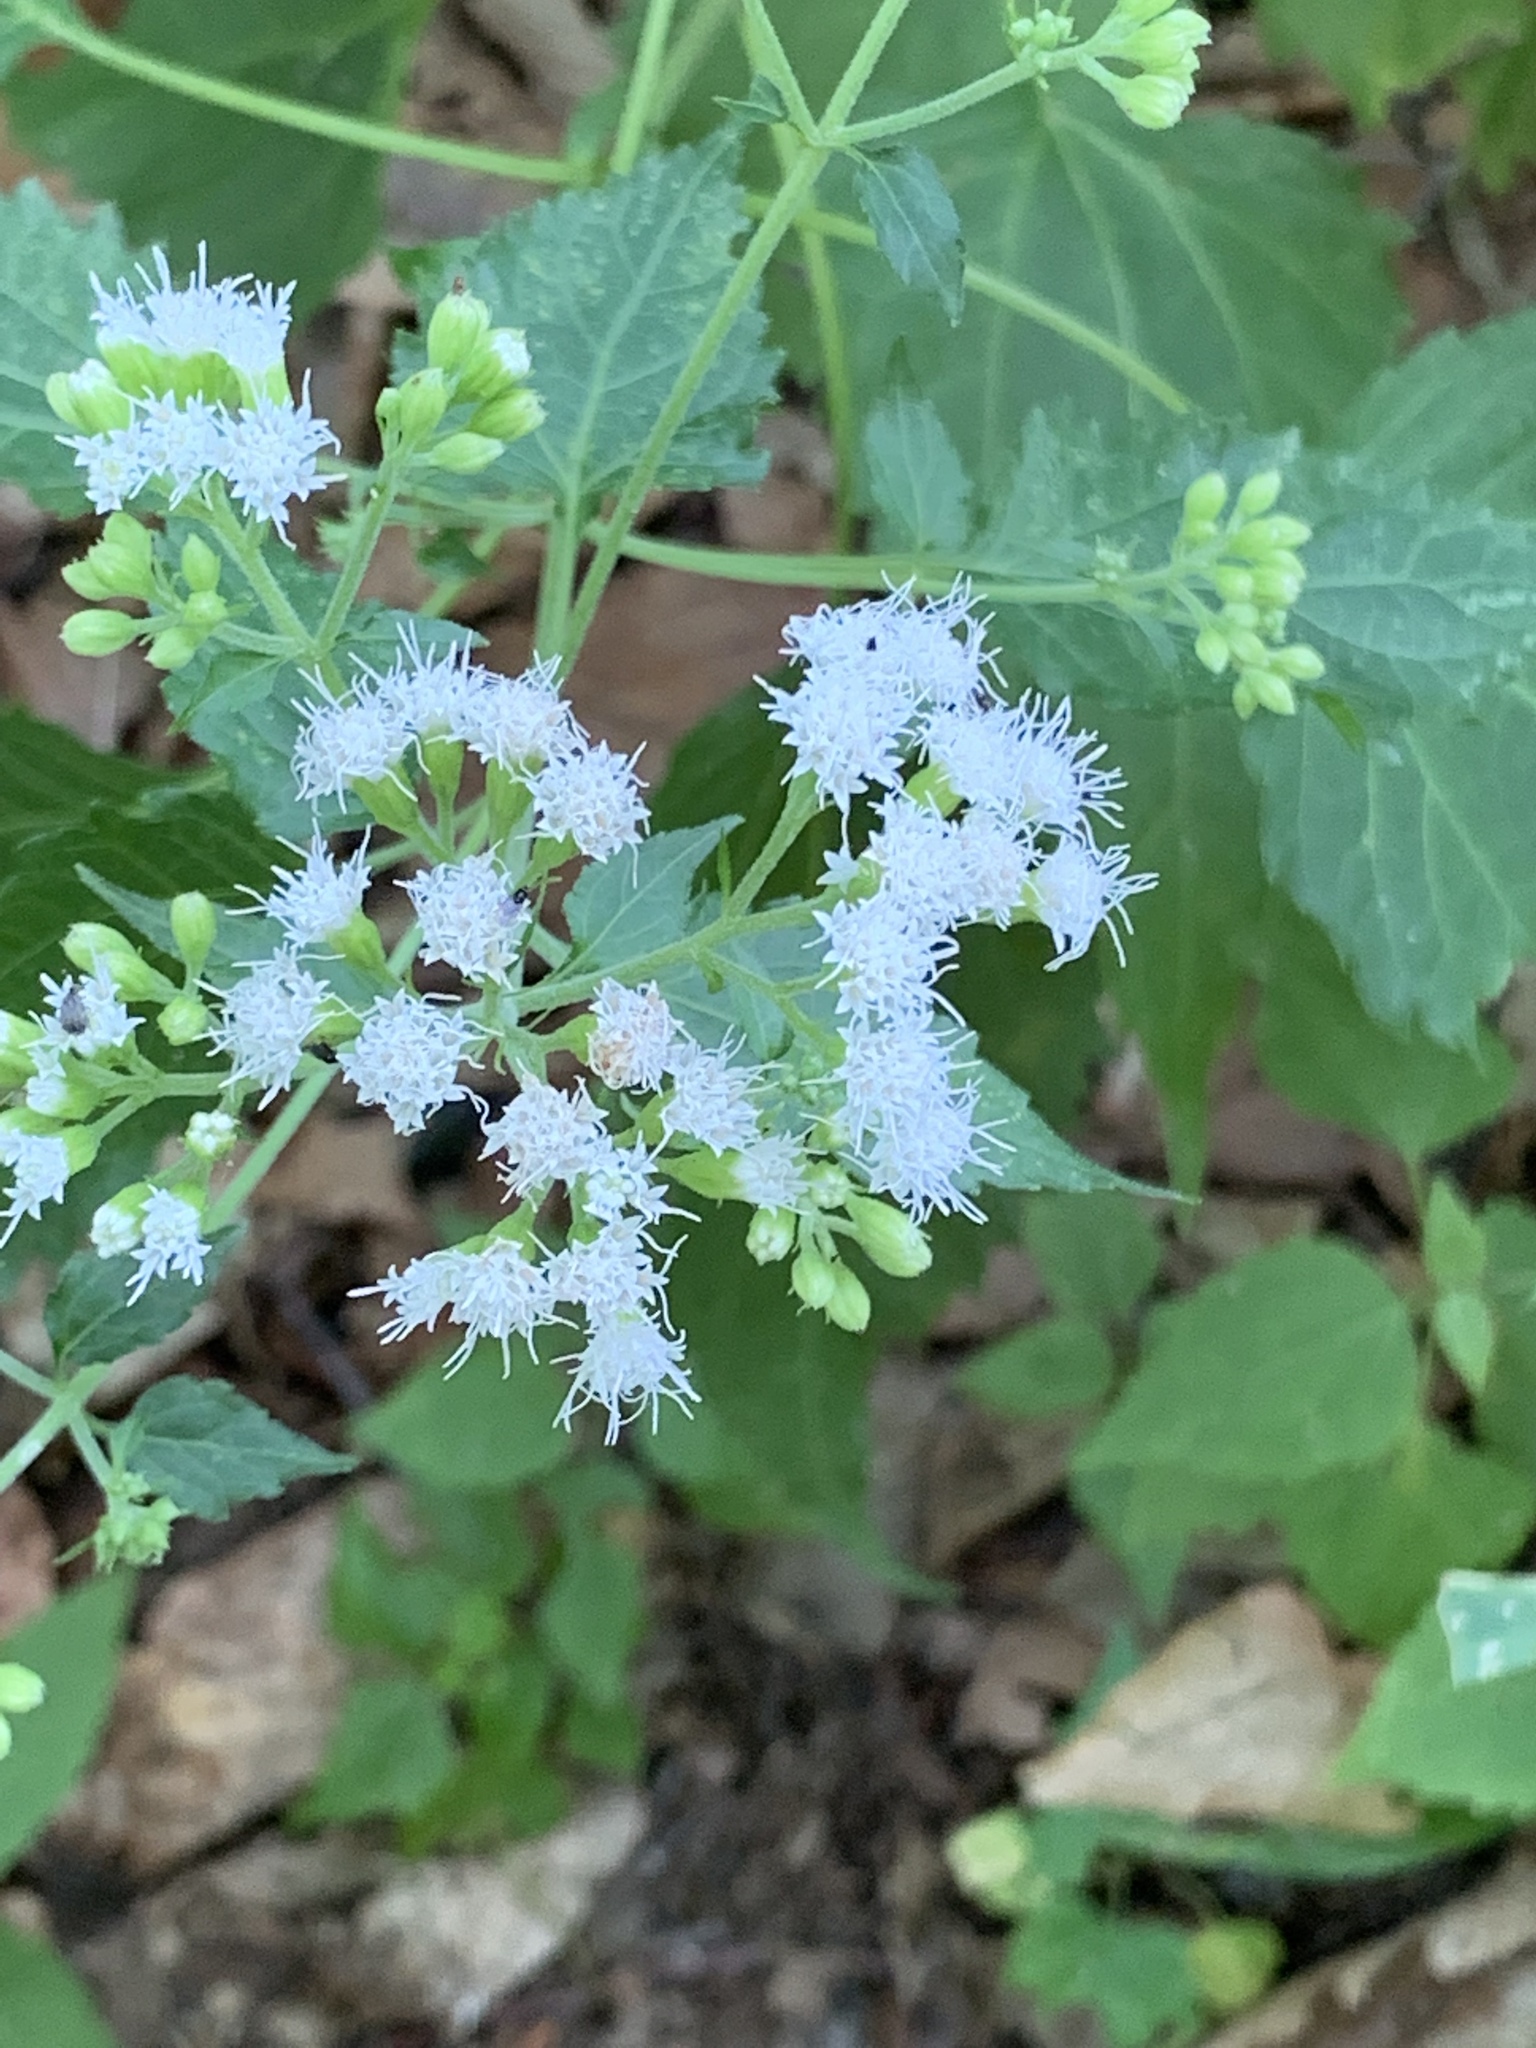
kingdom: Plantae
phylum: Tracheophyta
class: Magnoliopsida
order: Asterales
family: Asteraceae
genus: Ageratina
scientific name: Ageratina altissima
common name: White snakeroot
